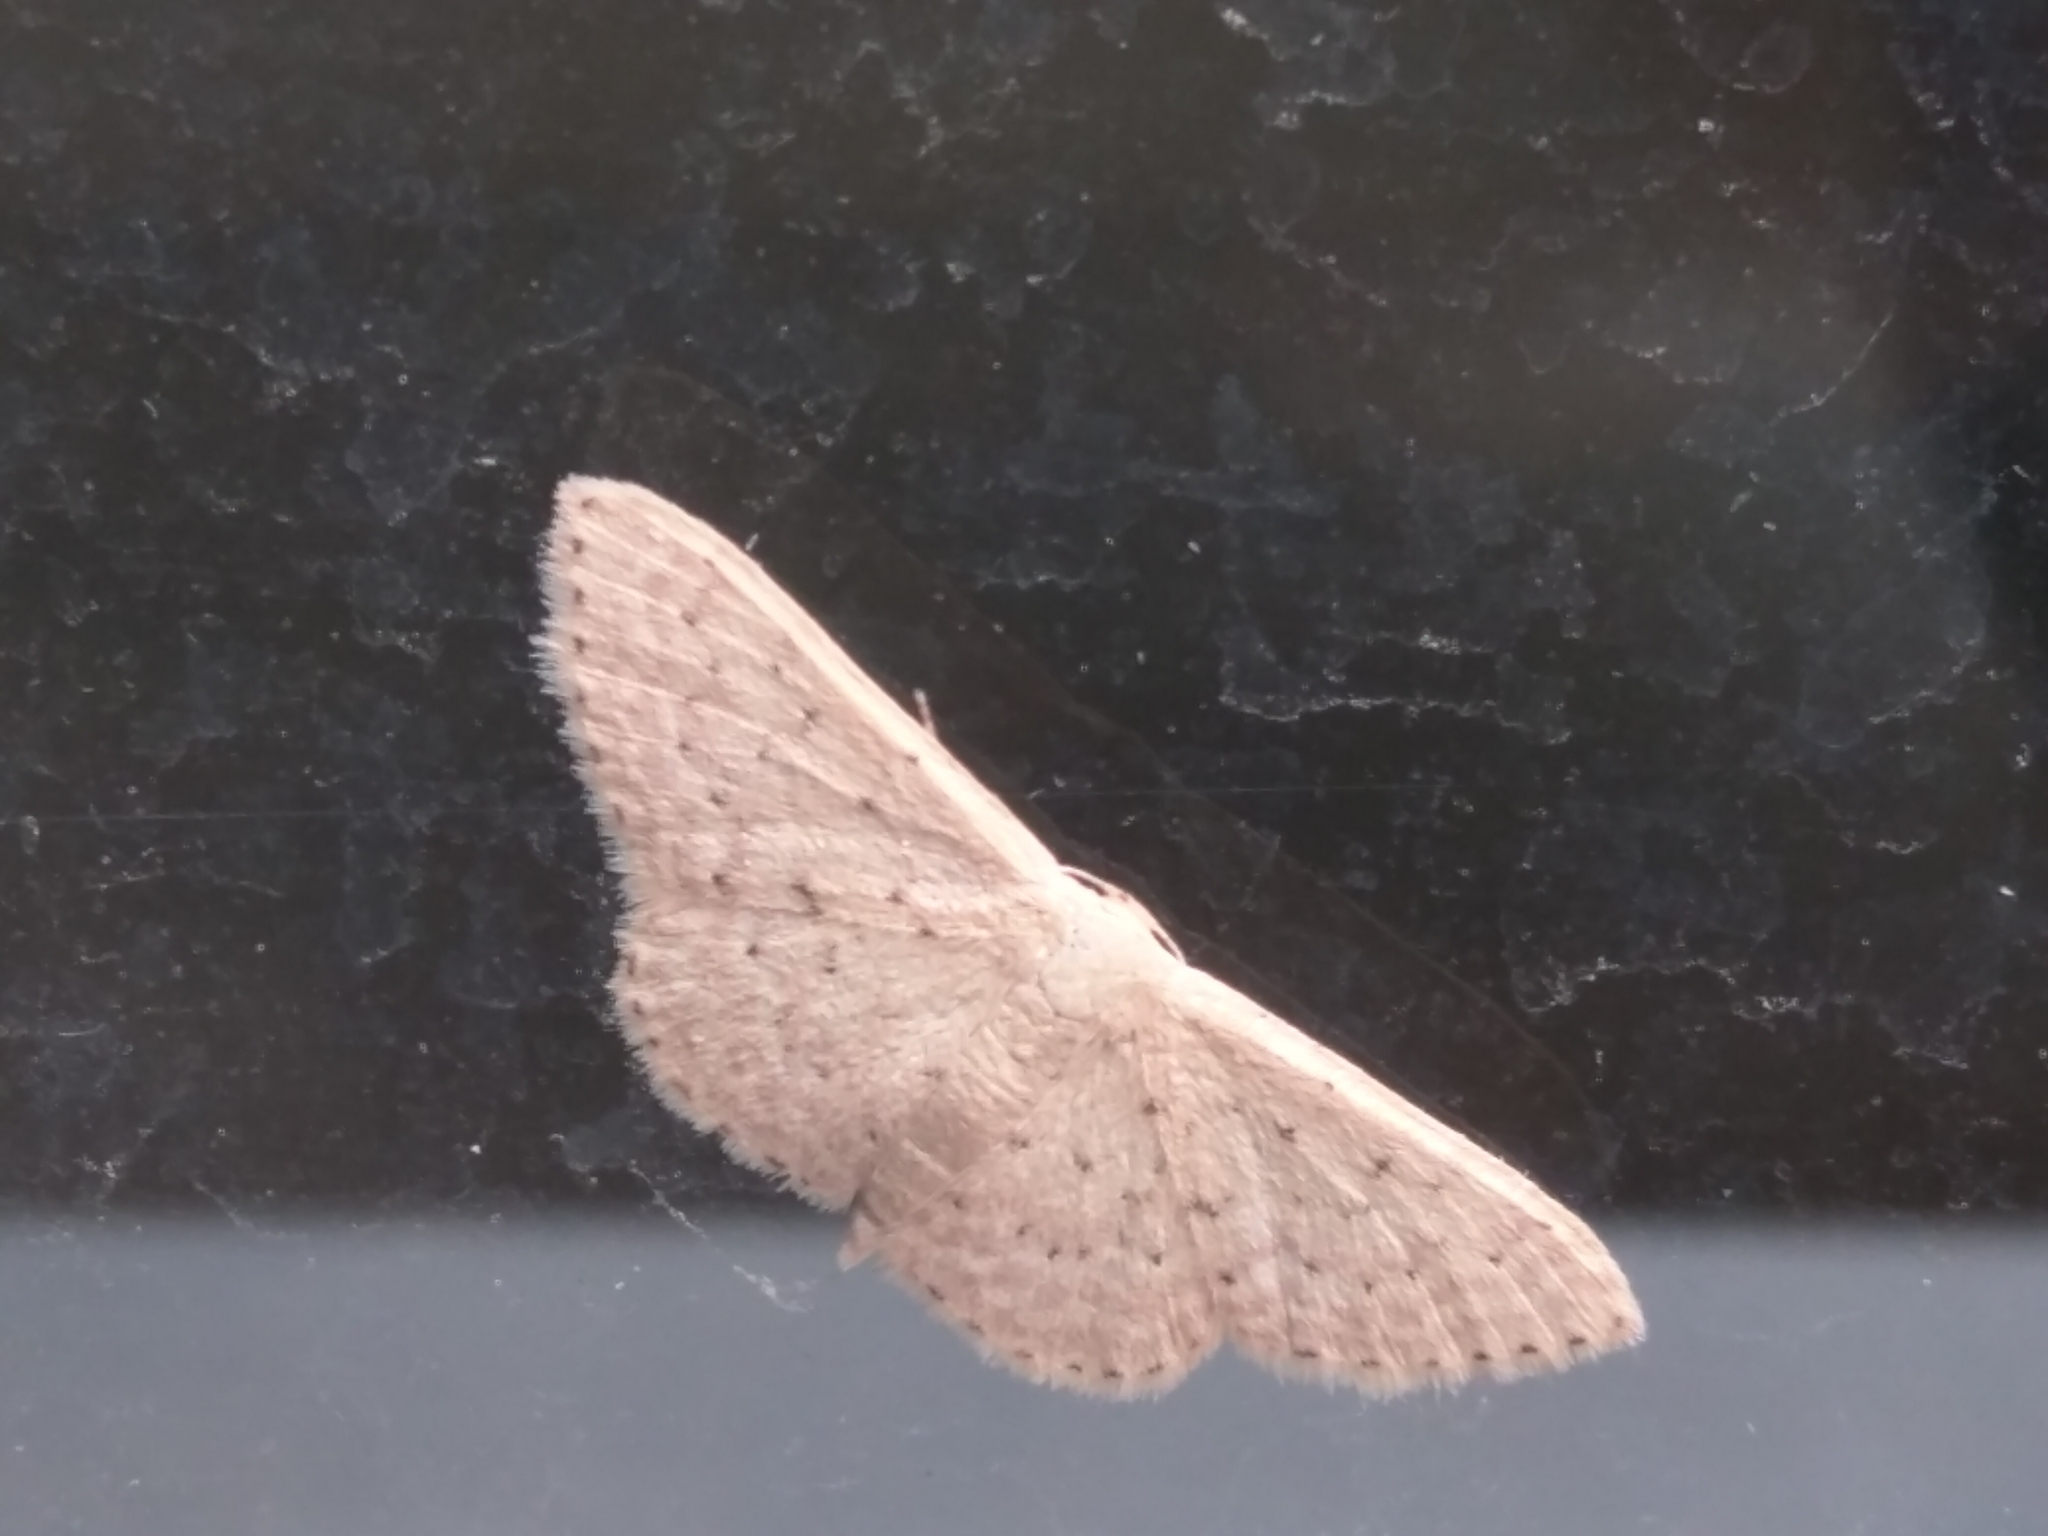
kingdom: Animalia
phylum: Arthropoda
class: Insecta
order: Lepidoptera
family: Geometridae
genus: Idaea
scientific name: Idaea philocosma
